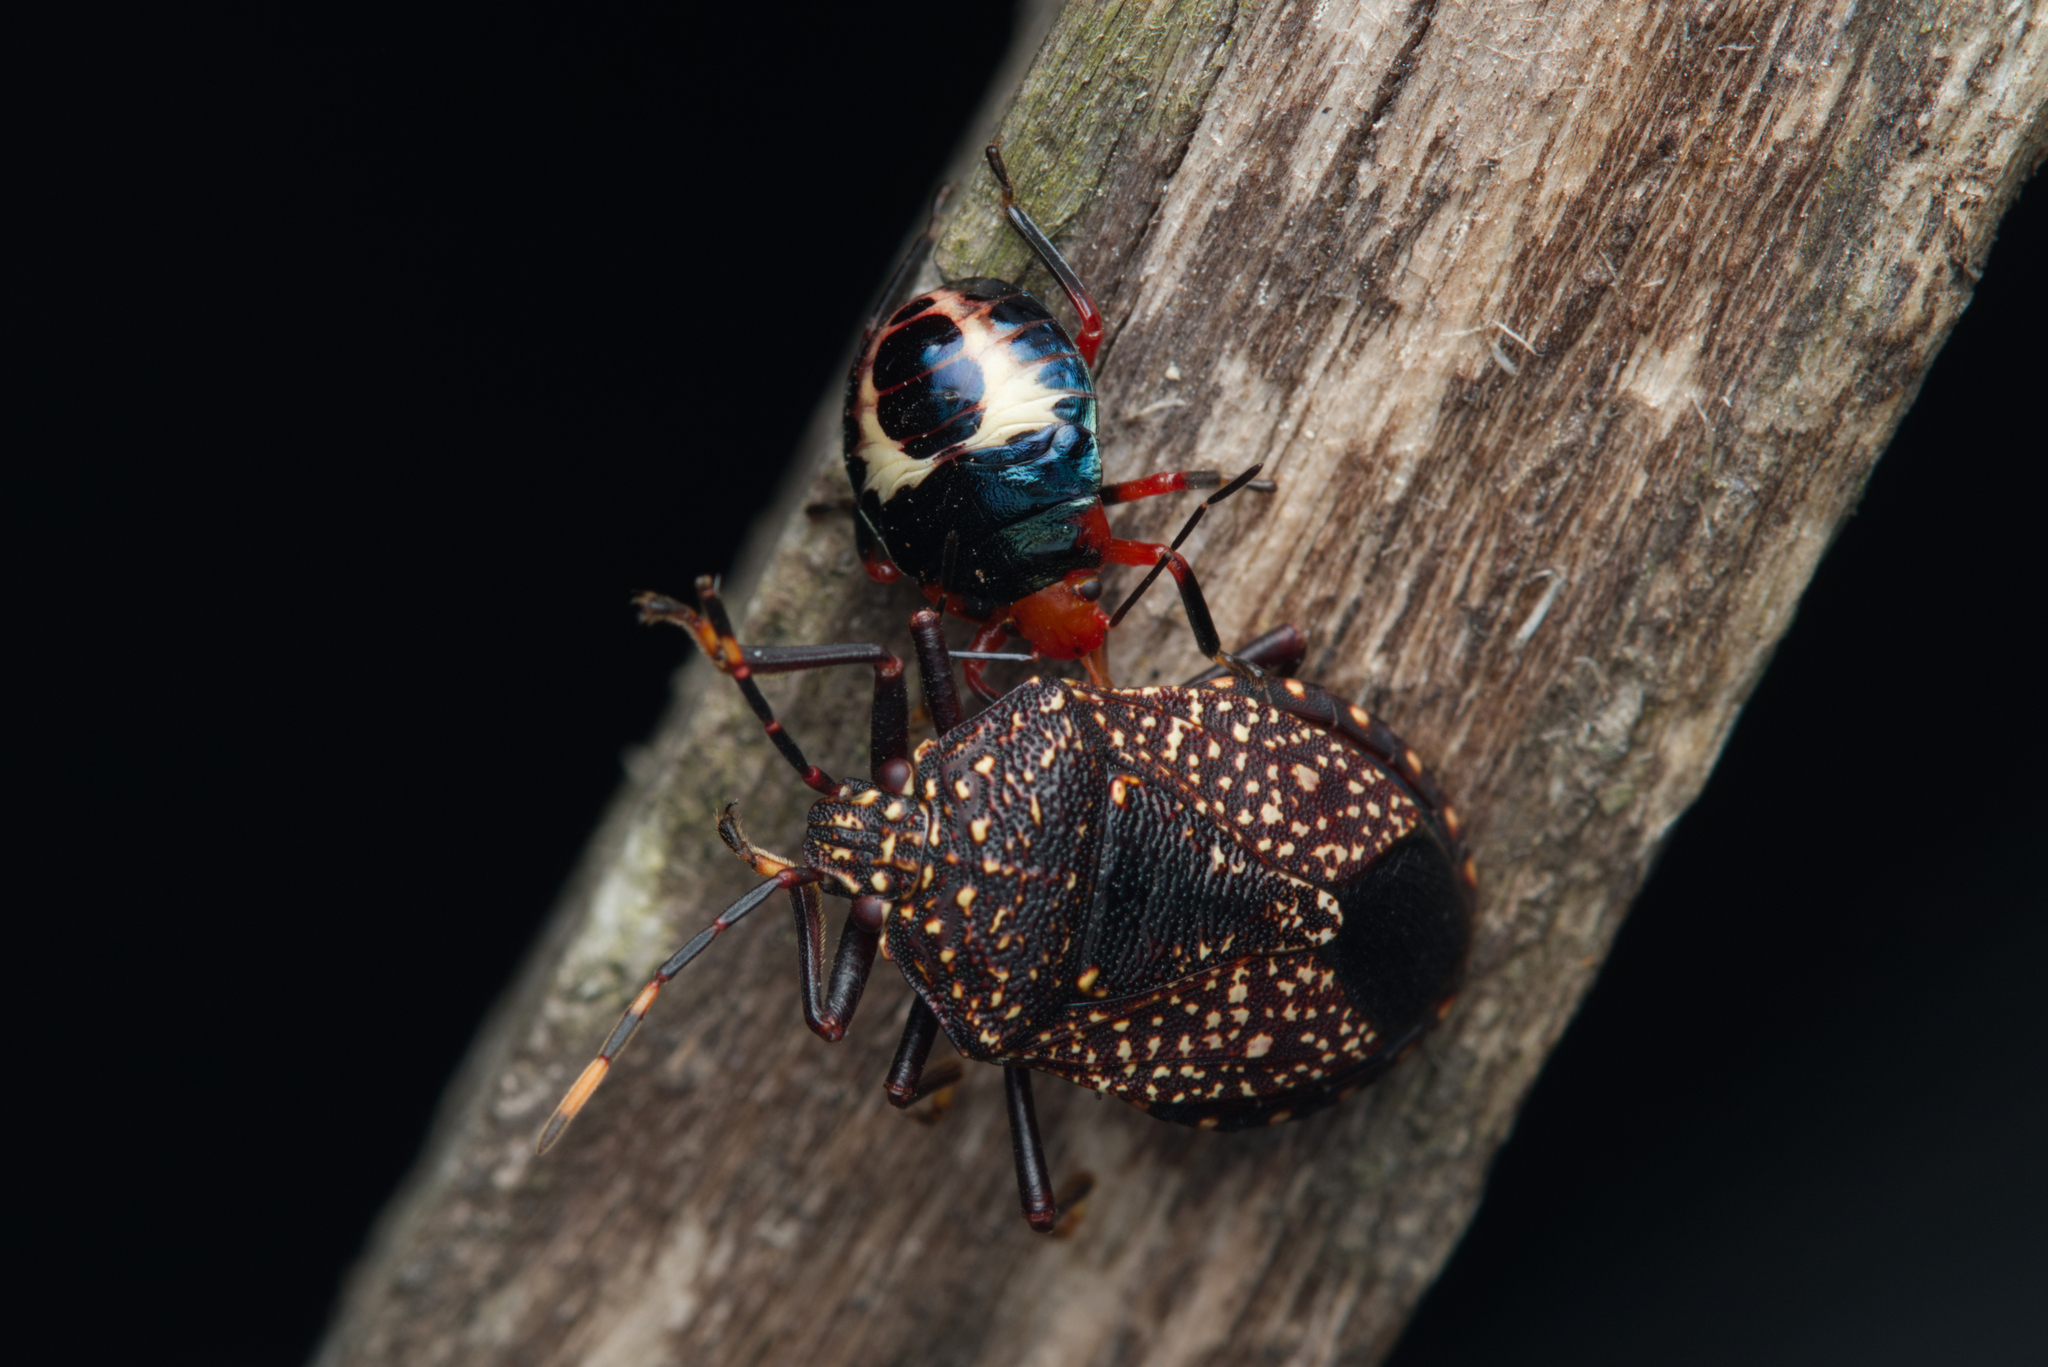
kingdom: Animalia
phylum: Arthropoda
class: Insecta
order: Hemiptera
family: Pentatomidae
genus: Notius
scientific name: Notius
